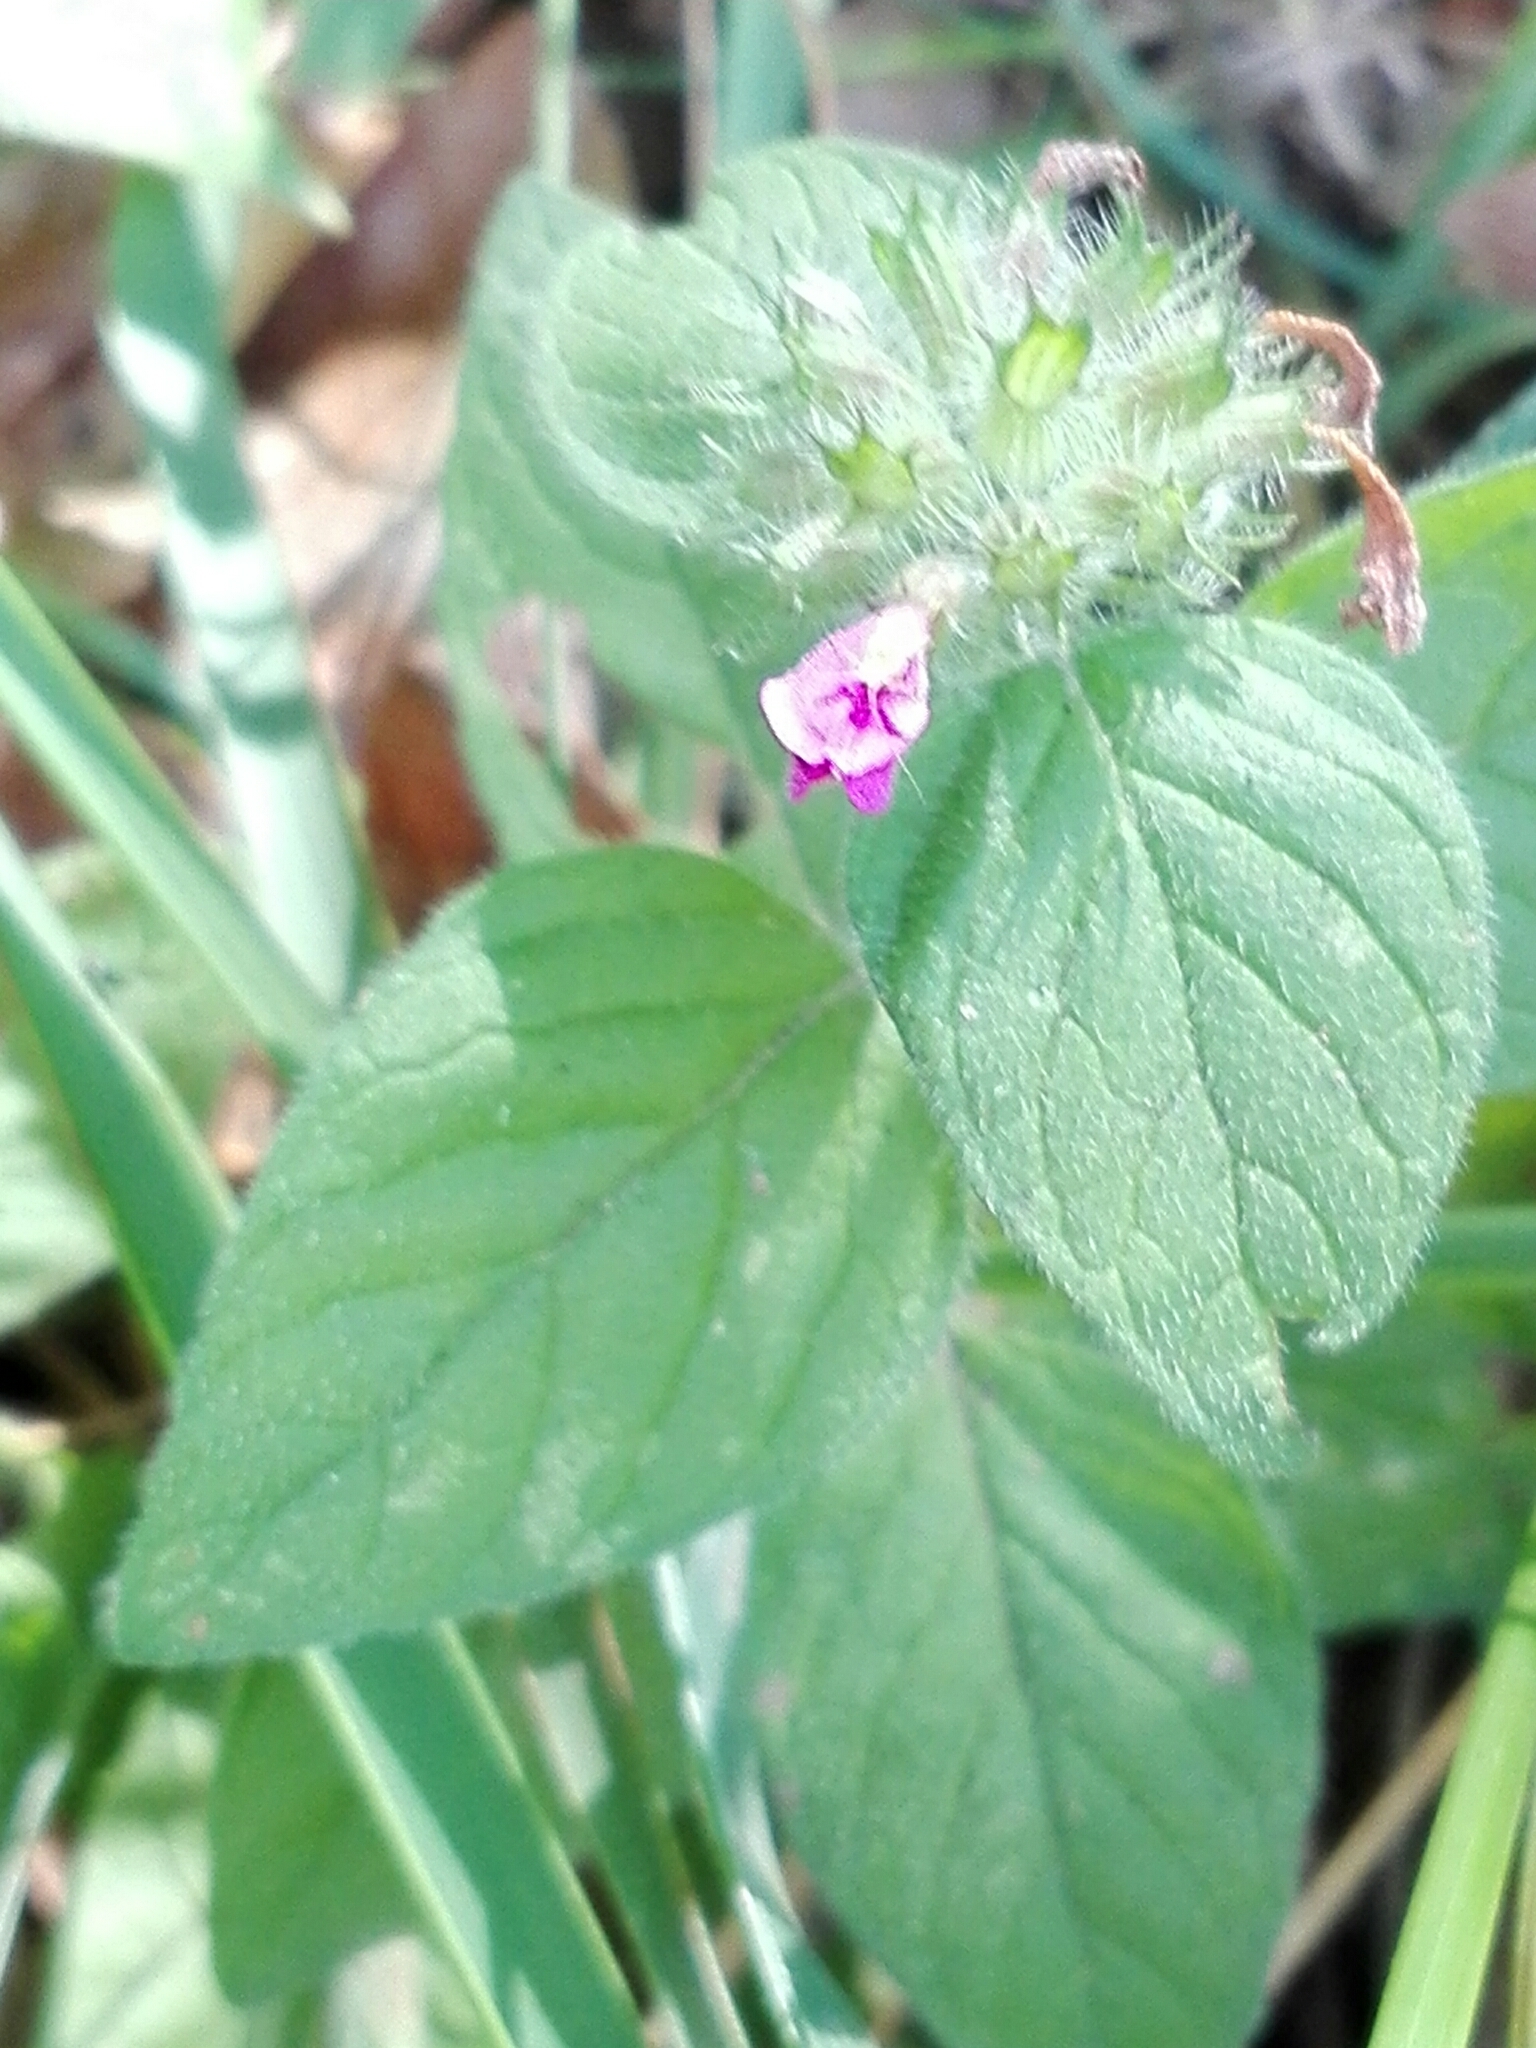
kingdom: Plantae
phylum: Tracheophyta
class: Magnoliopsida
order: Lamiales
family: Lamiaceae
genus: Clinopodium
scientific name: Clinopodium vulgare
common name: Wild basil
